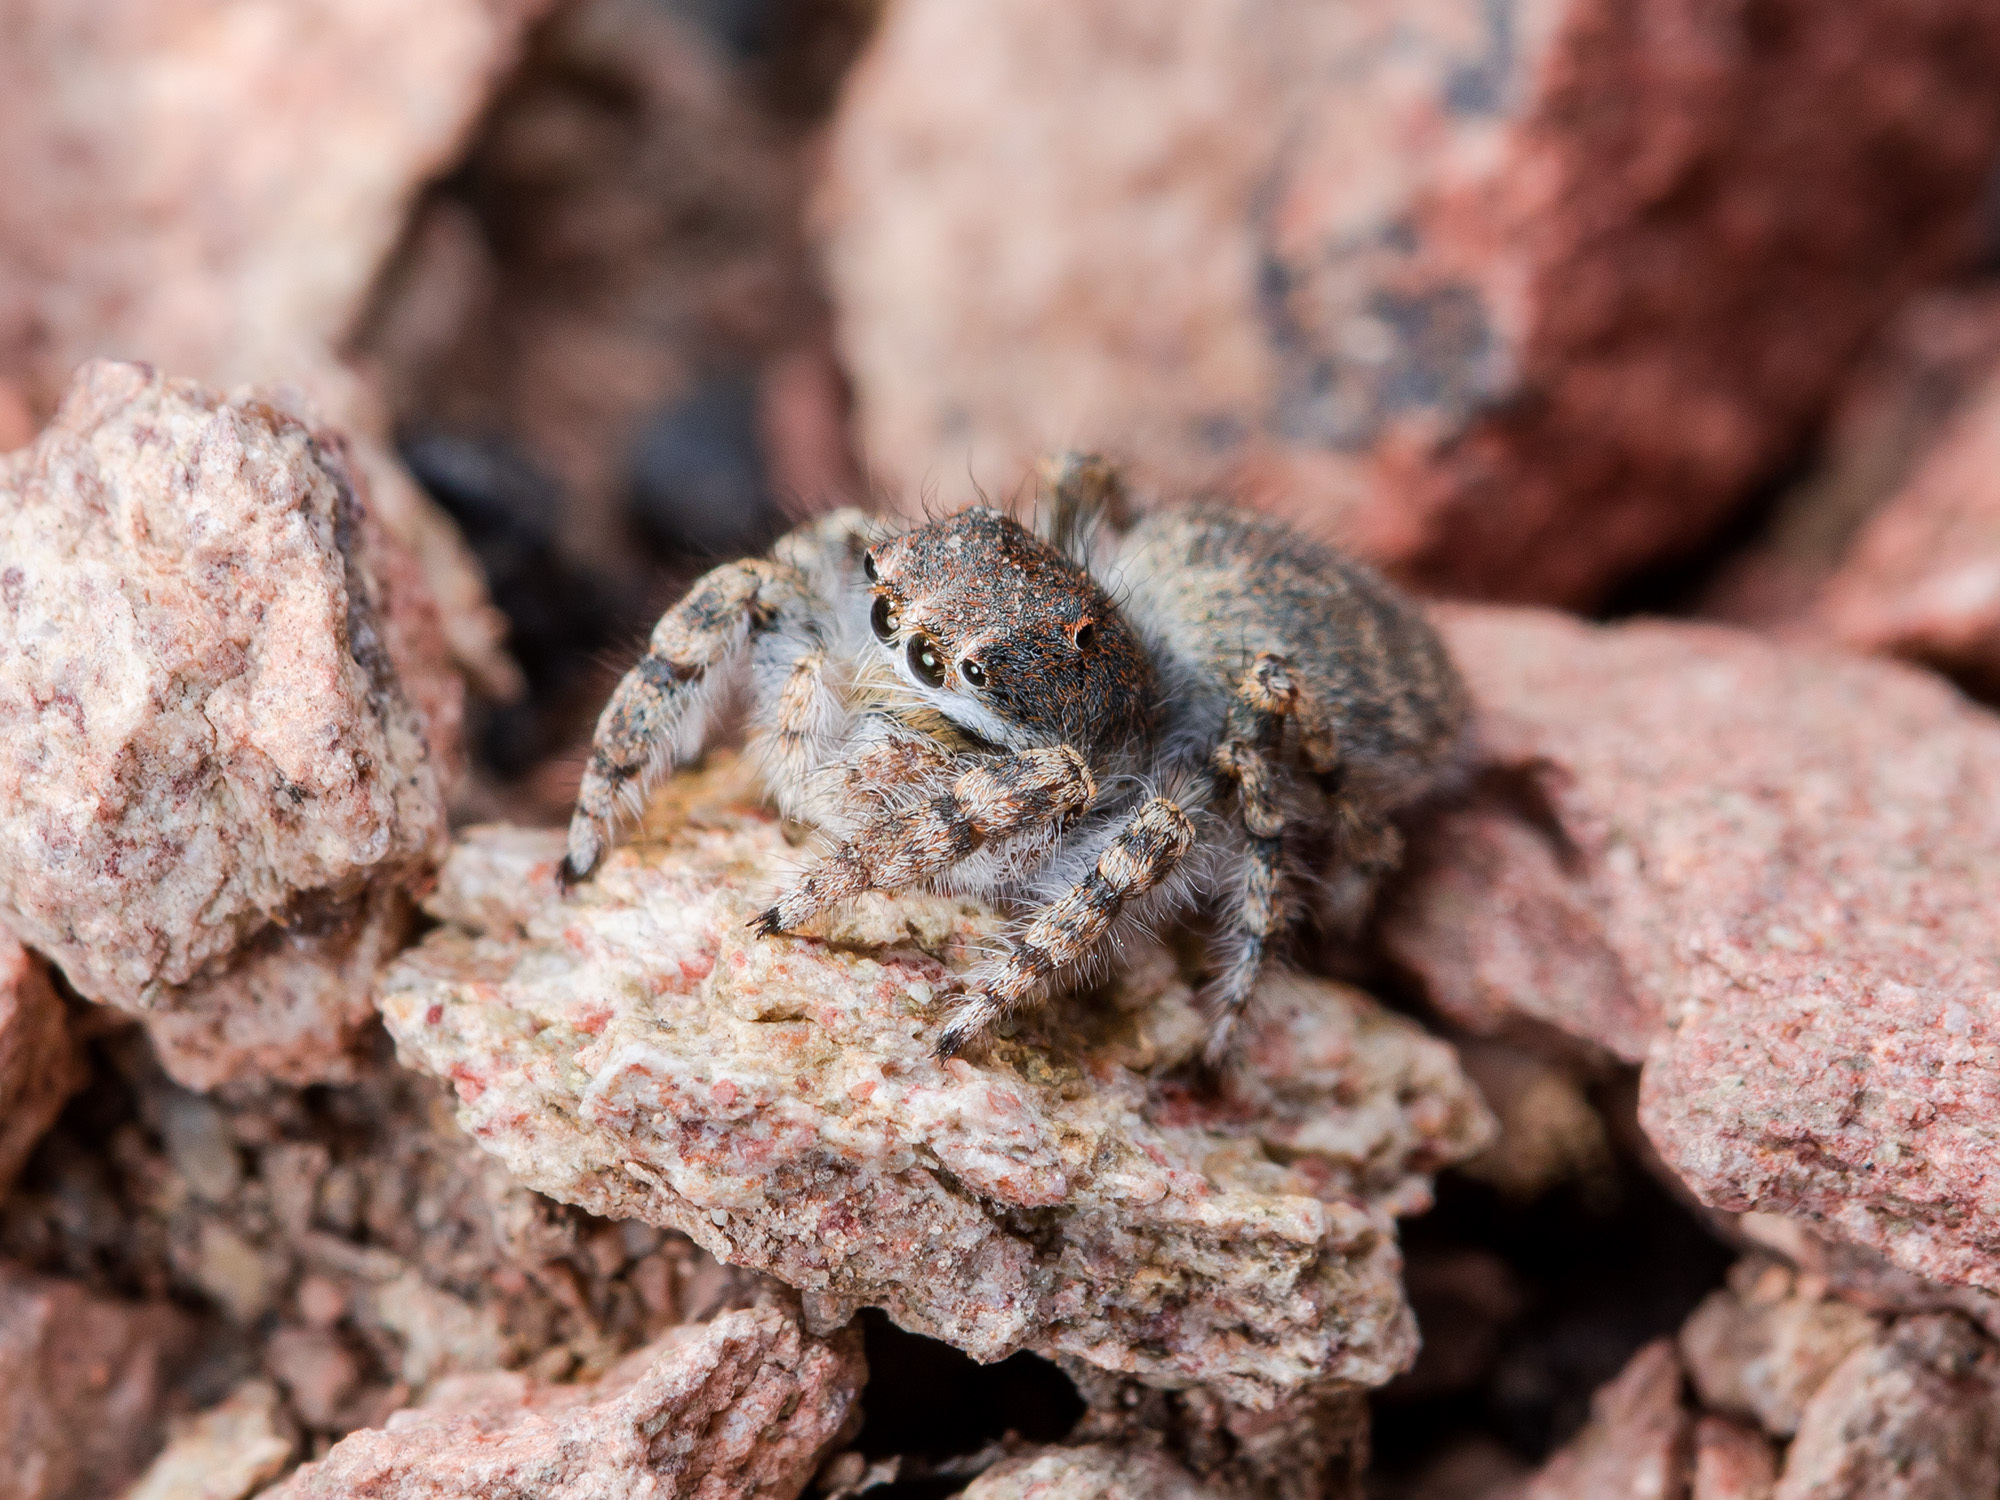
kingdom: Animalia
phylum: Arthropoda
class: Arachnida
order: Araneae
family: Salticidae
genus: Yllenus
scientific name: Yllenus charynensis
